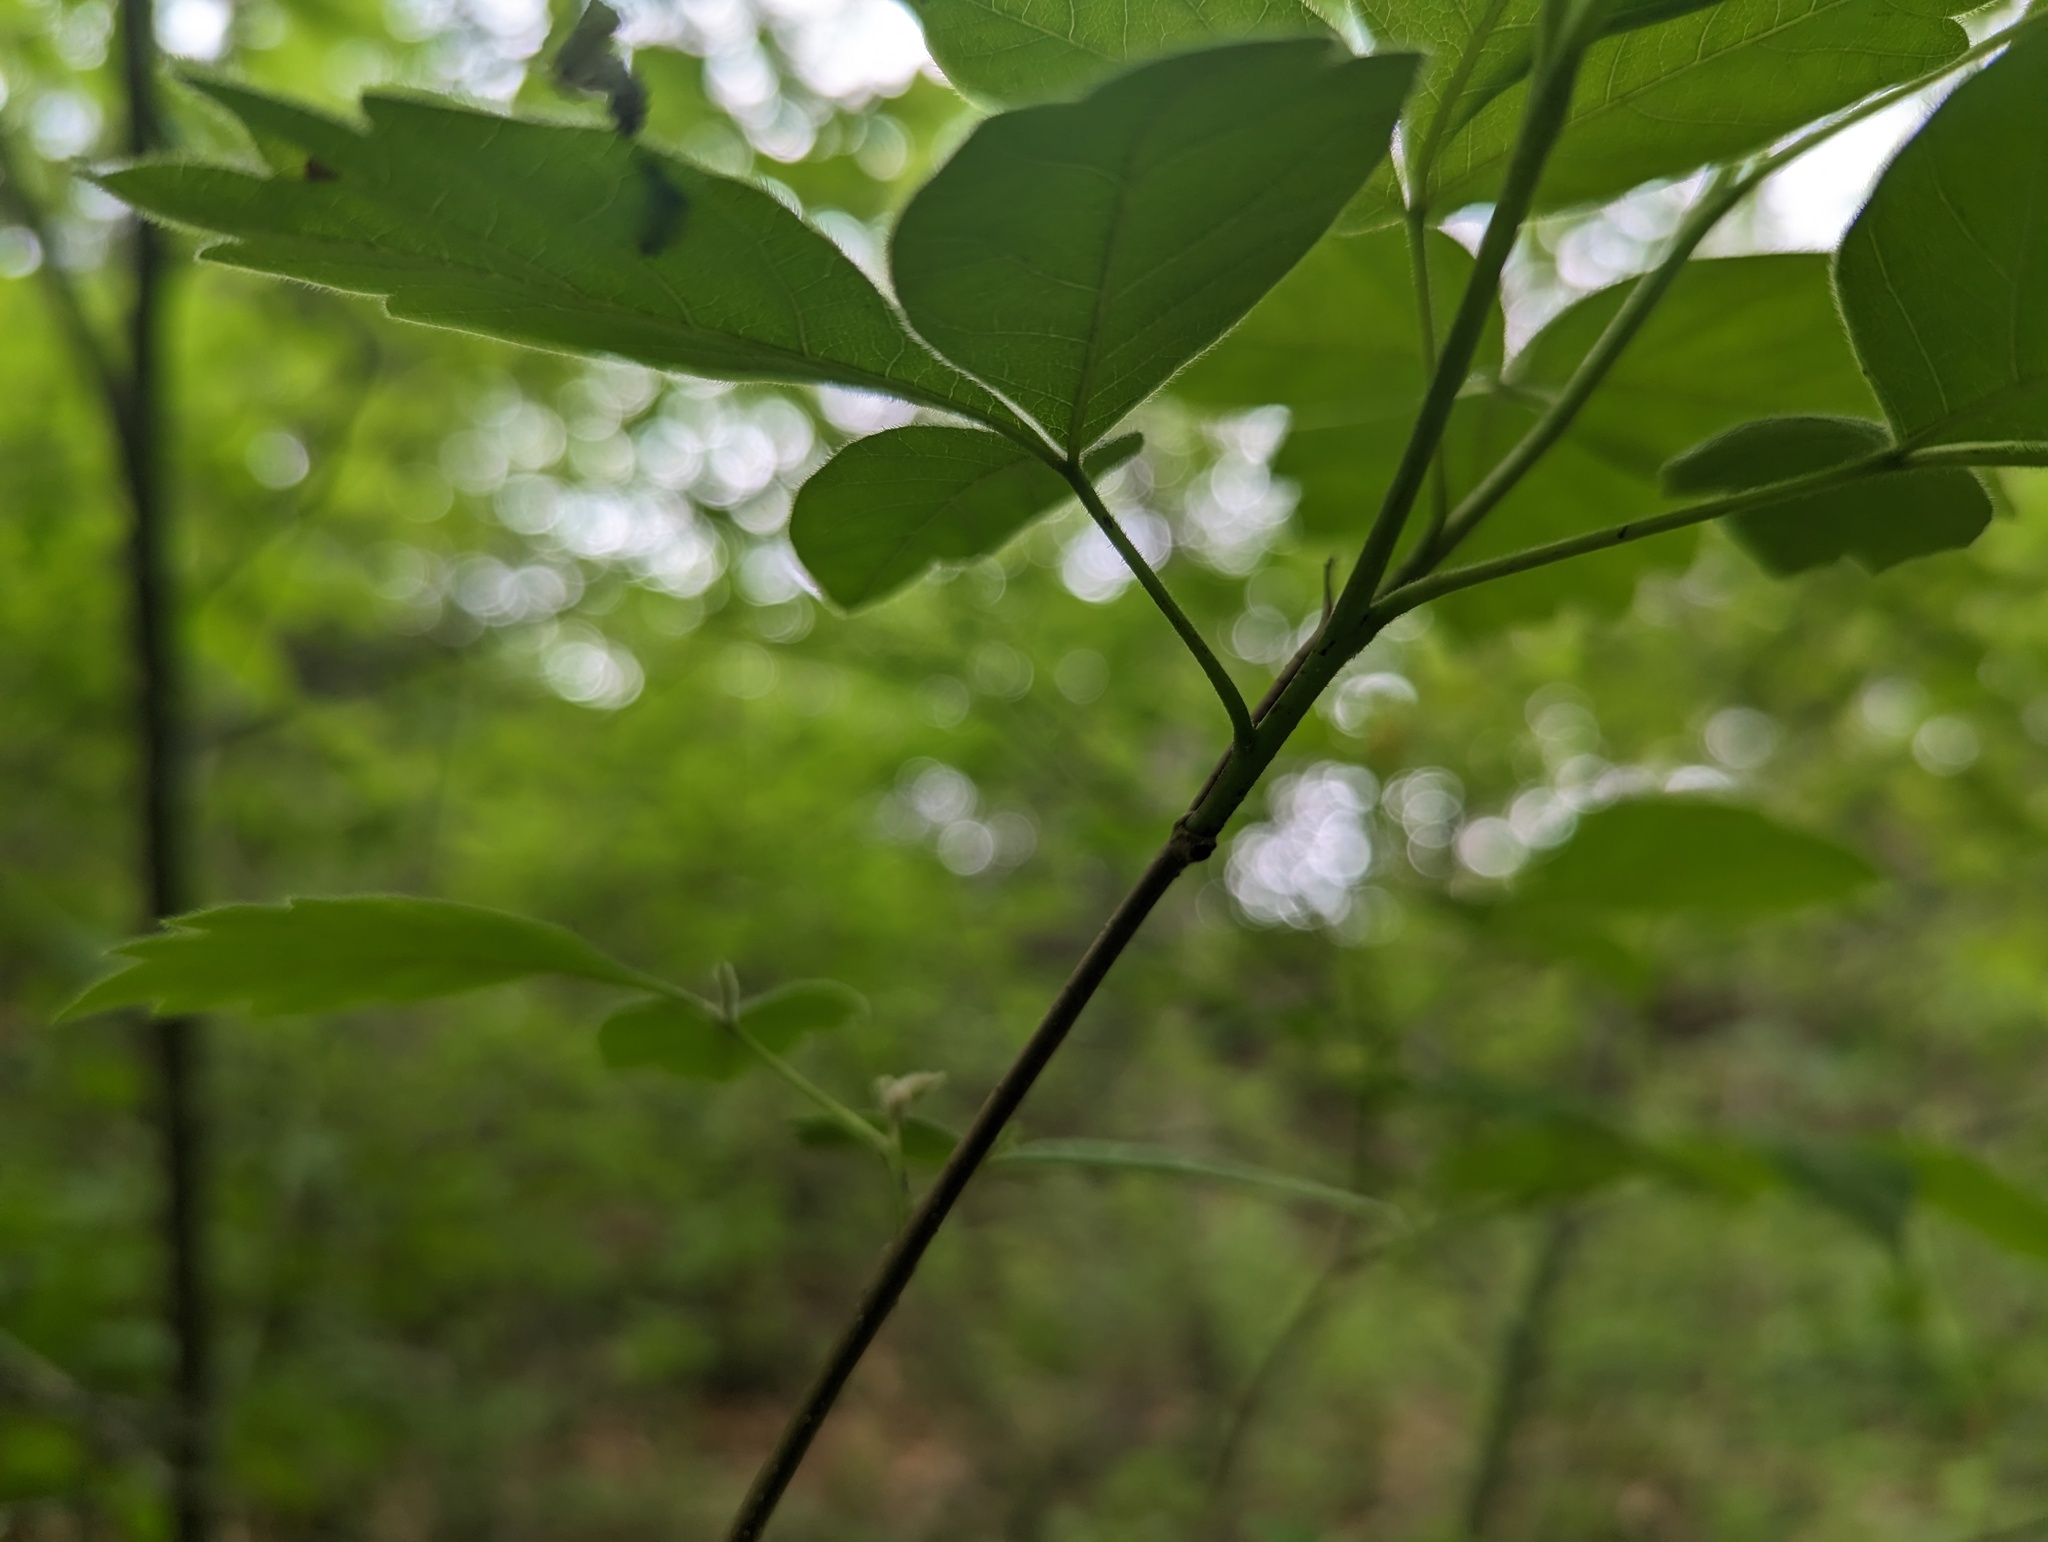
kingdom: Plantae
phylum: Tracheophyta
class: Magnoliopsida
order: Sapindales
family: Anacardiaceae
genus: Rhus
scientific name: Rhus aromatica
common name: Aromatic sumac
